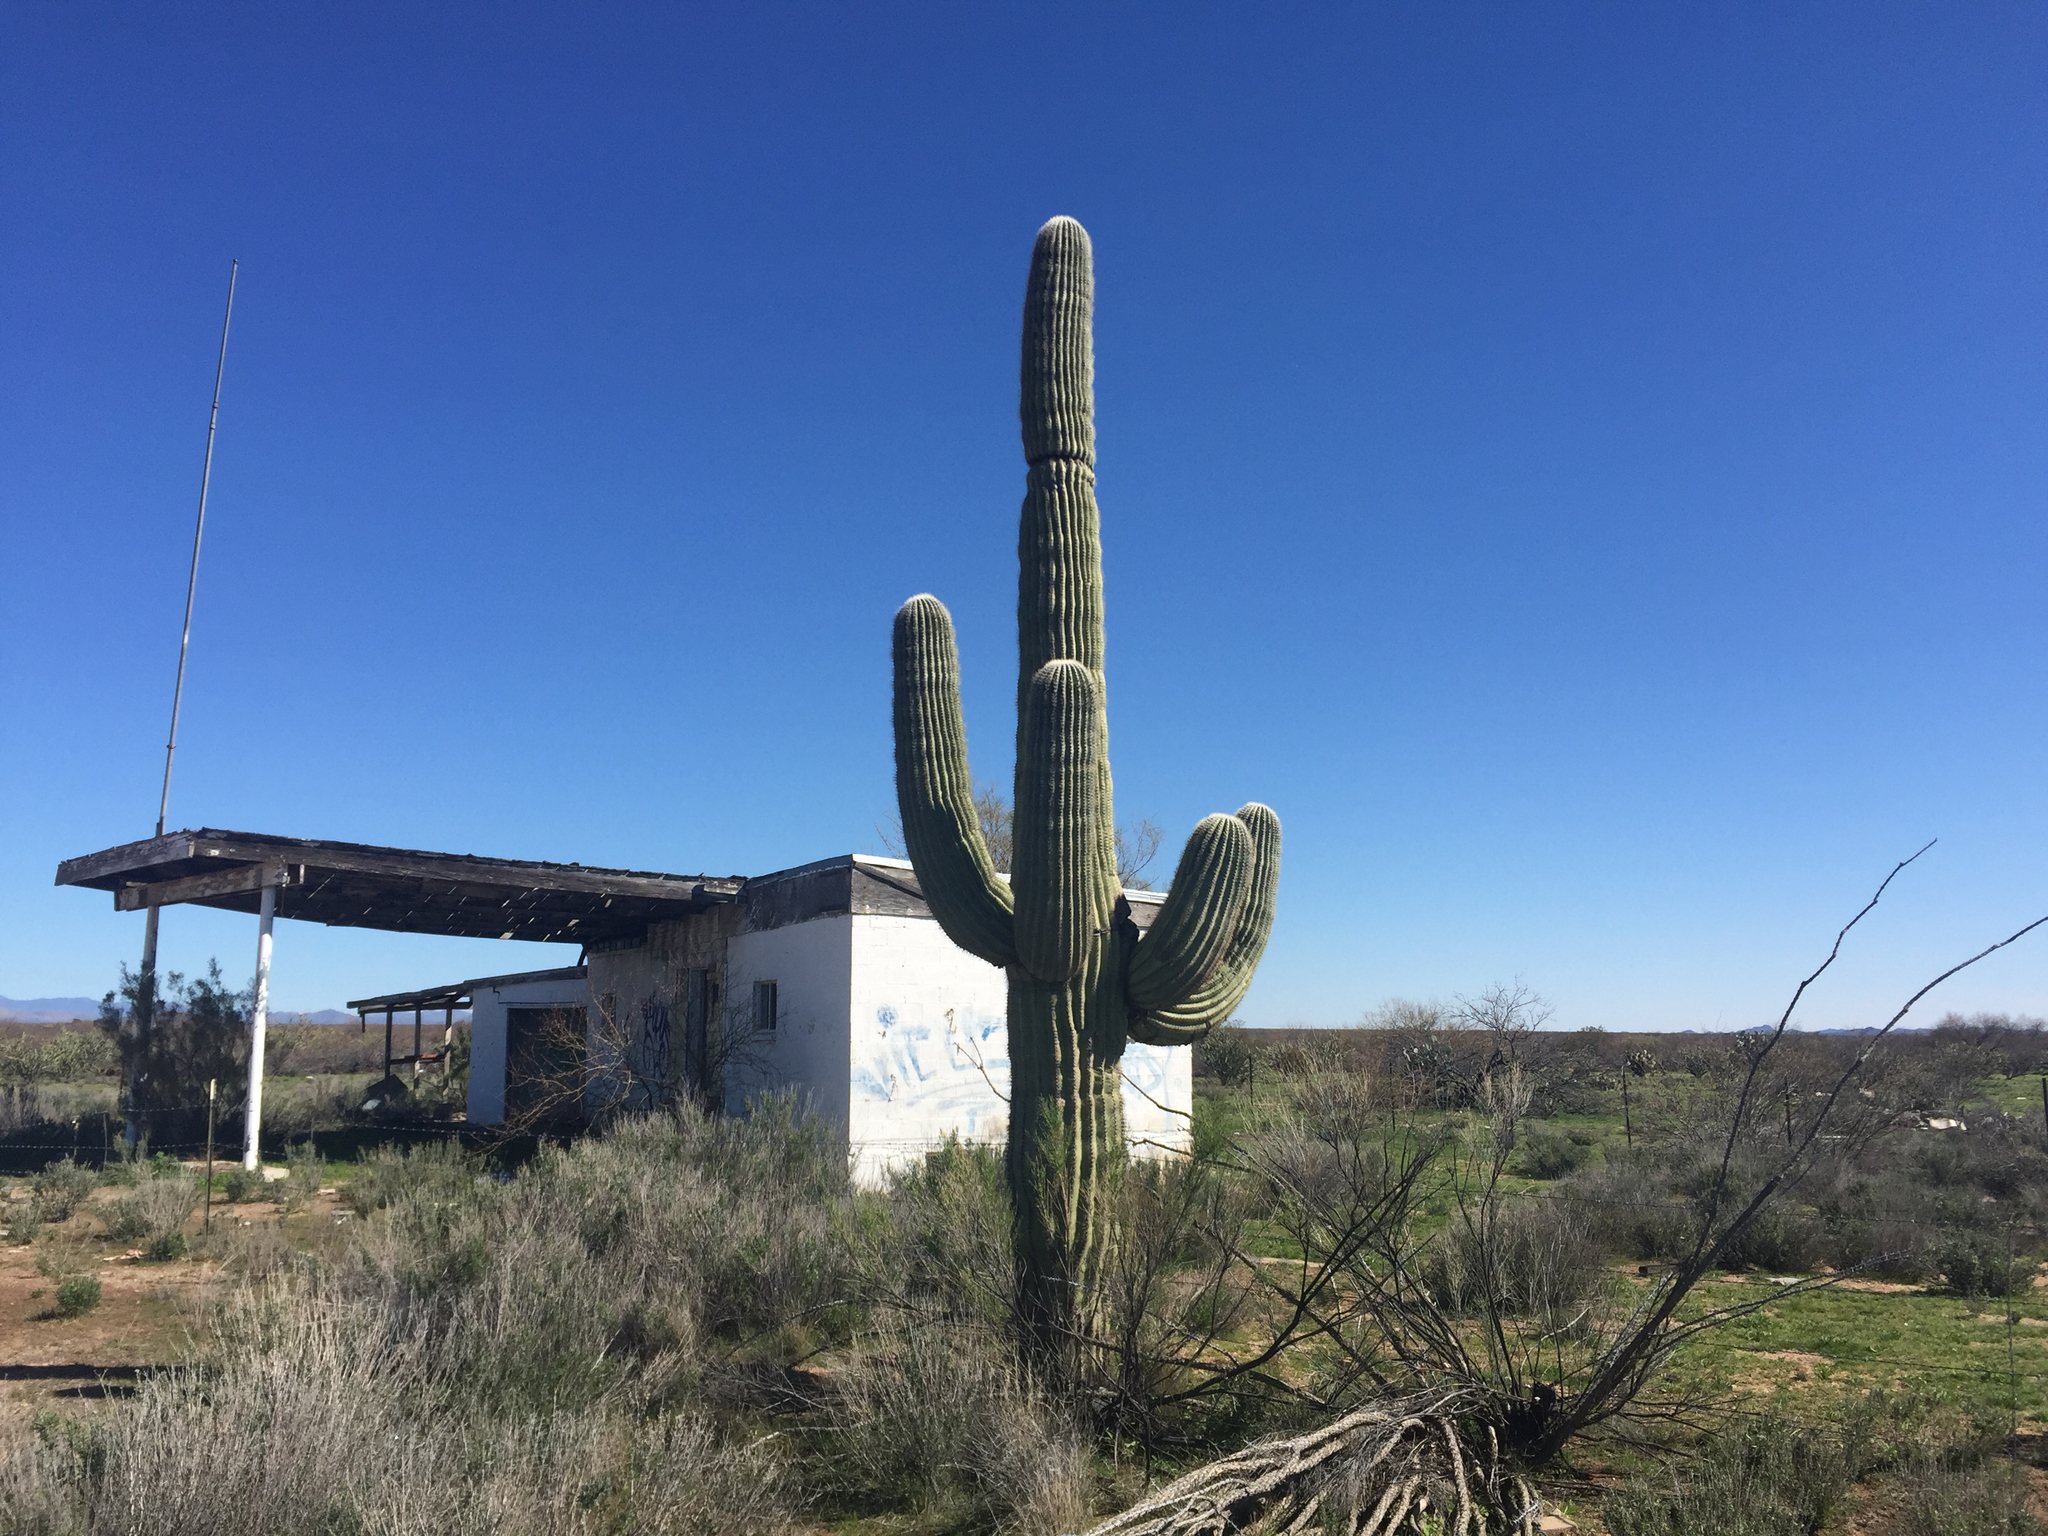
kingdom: Plantae
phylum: Tracheophyta
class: Magnoliopsida
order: Caryophyllales
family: Cactaceae
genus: Carnegiea
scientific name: Carnegiea gigantea
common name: Saguaro
